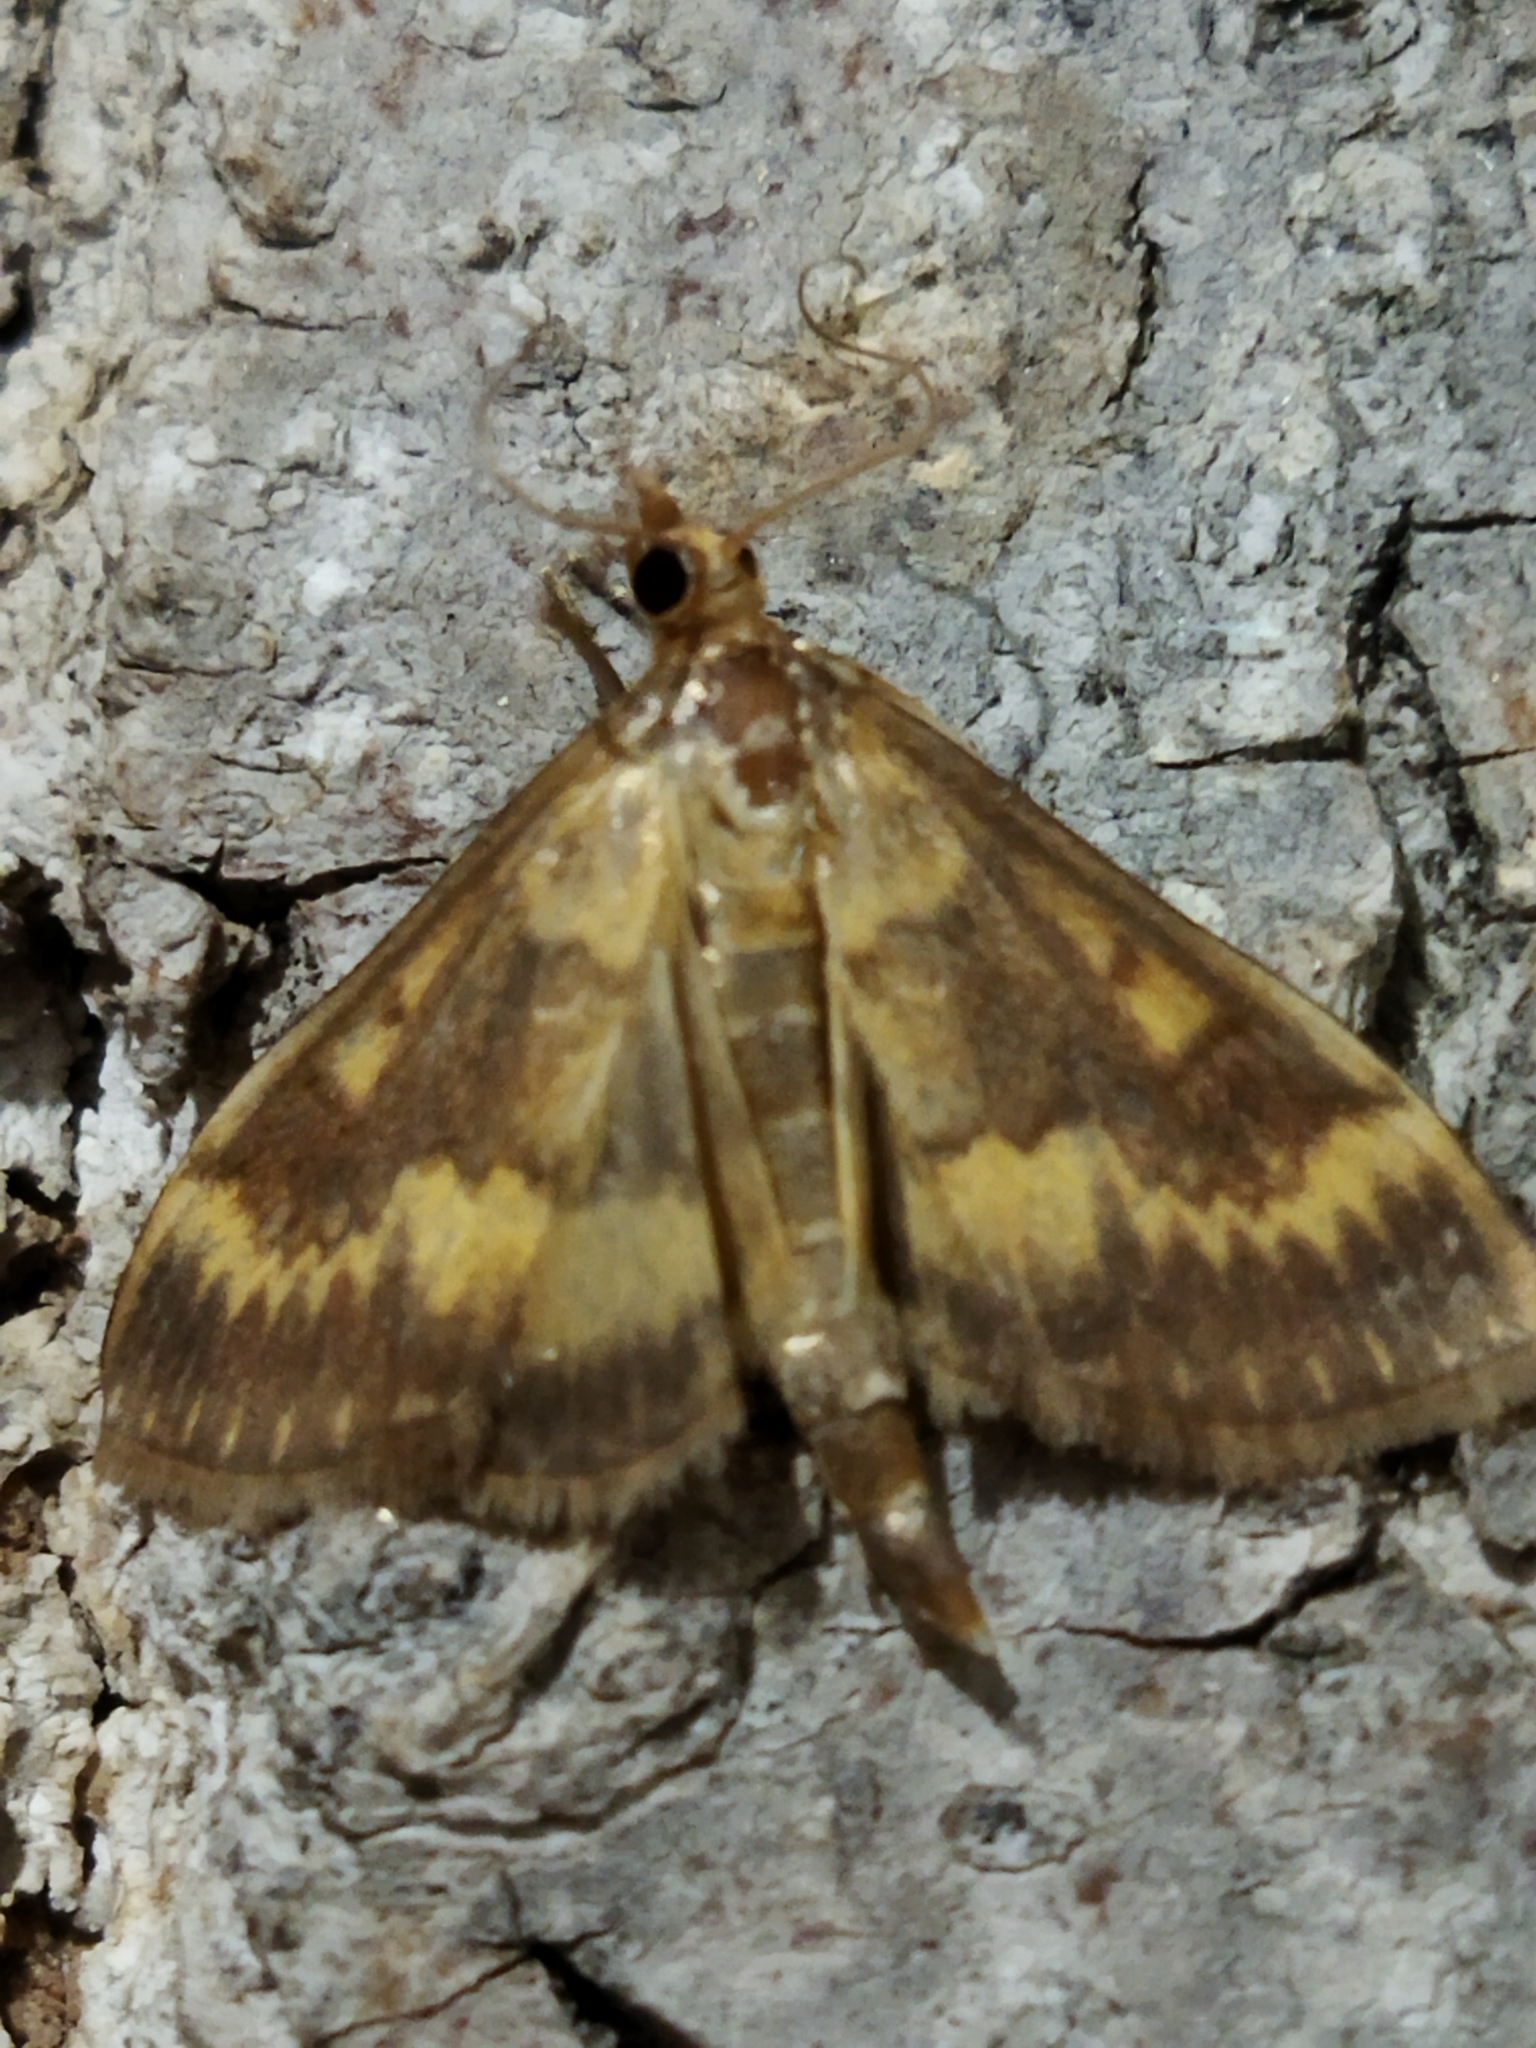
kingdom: Animalia
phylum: Arthropoda
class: Insecta
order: Lepidoptera
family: Crambidae
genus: Ostrinia
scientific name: Ostrinia nubilalis
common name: European corn borer
